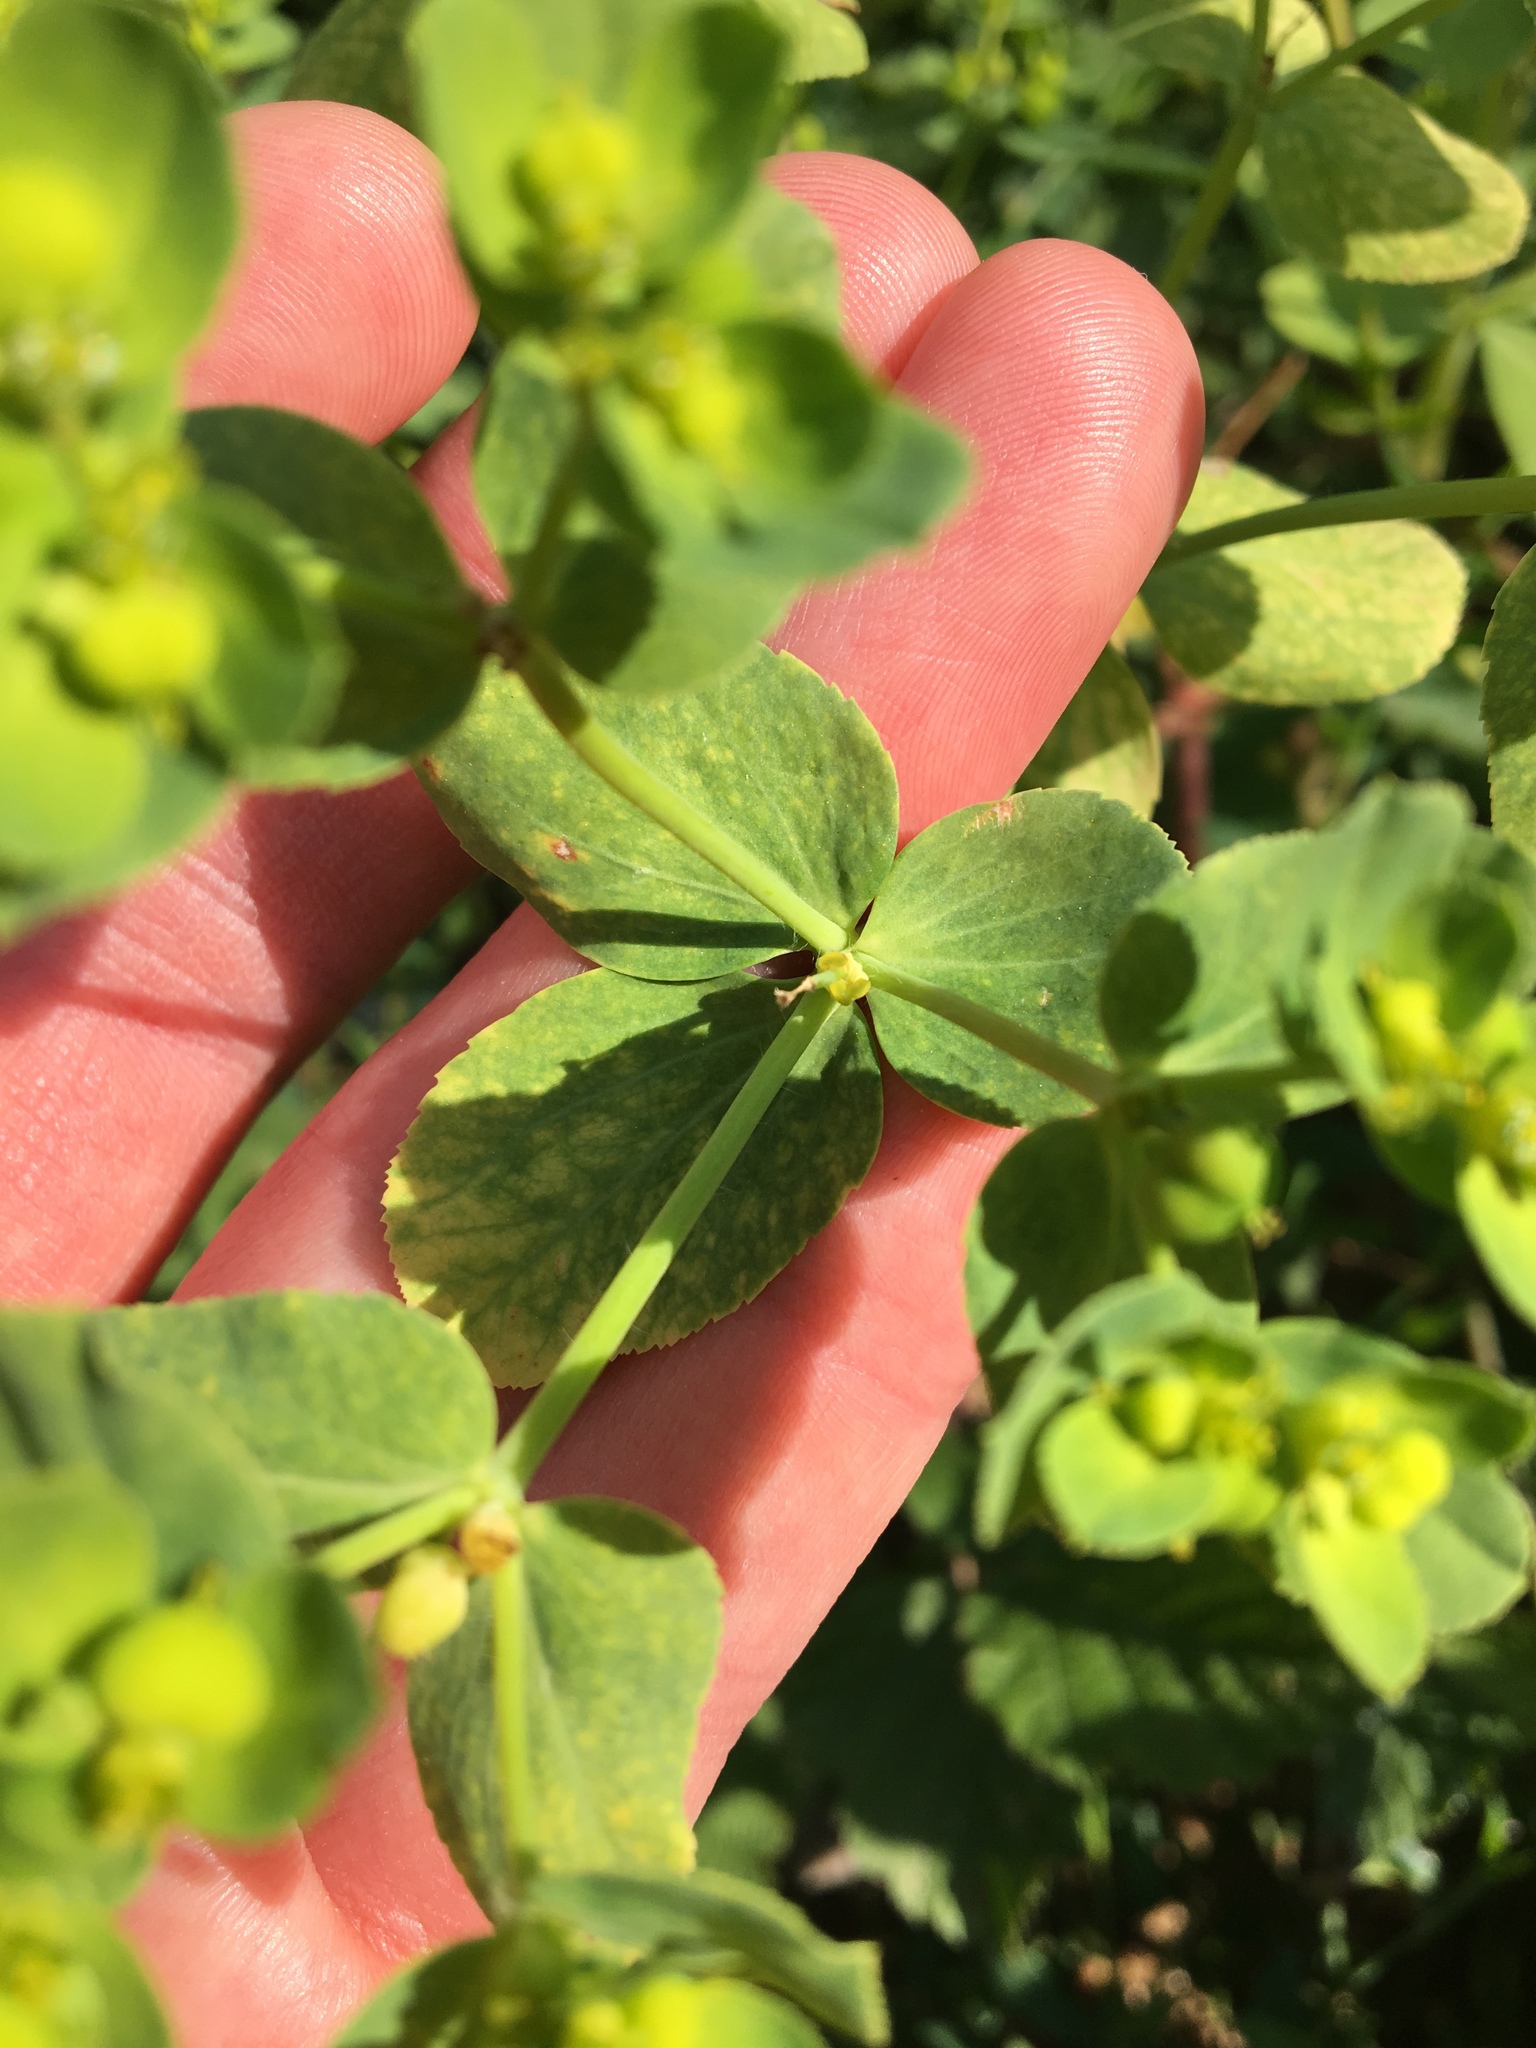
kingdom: Plantae
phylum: Tracheophyta
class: Magnoliopsida
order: Malpighiales
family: Euphorbiaceae
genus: Euphorbia
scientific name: Euphorbia helioscopia
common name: Sun spurge
